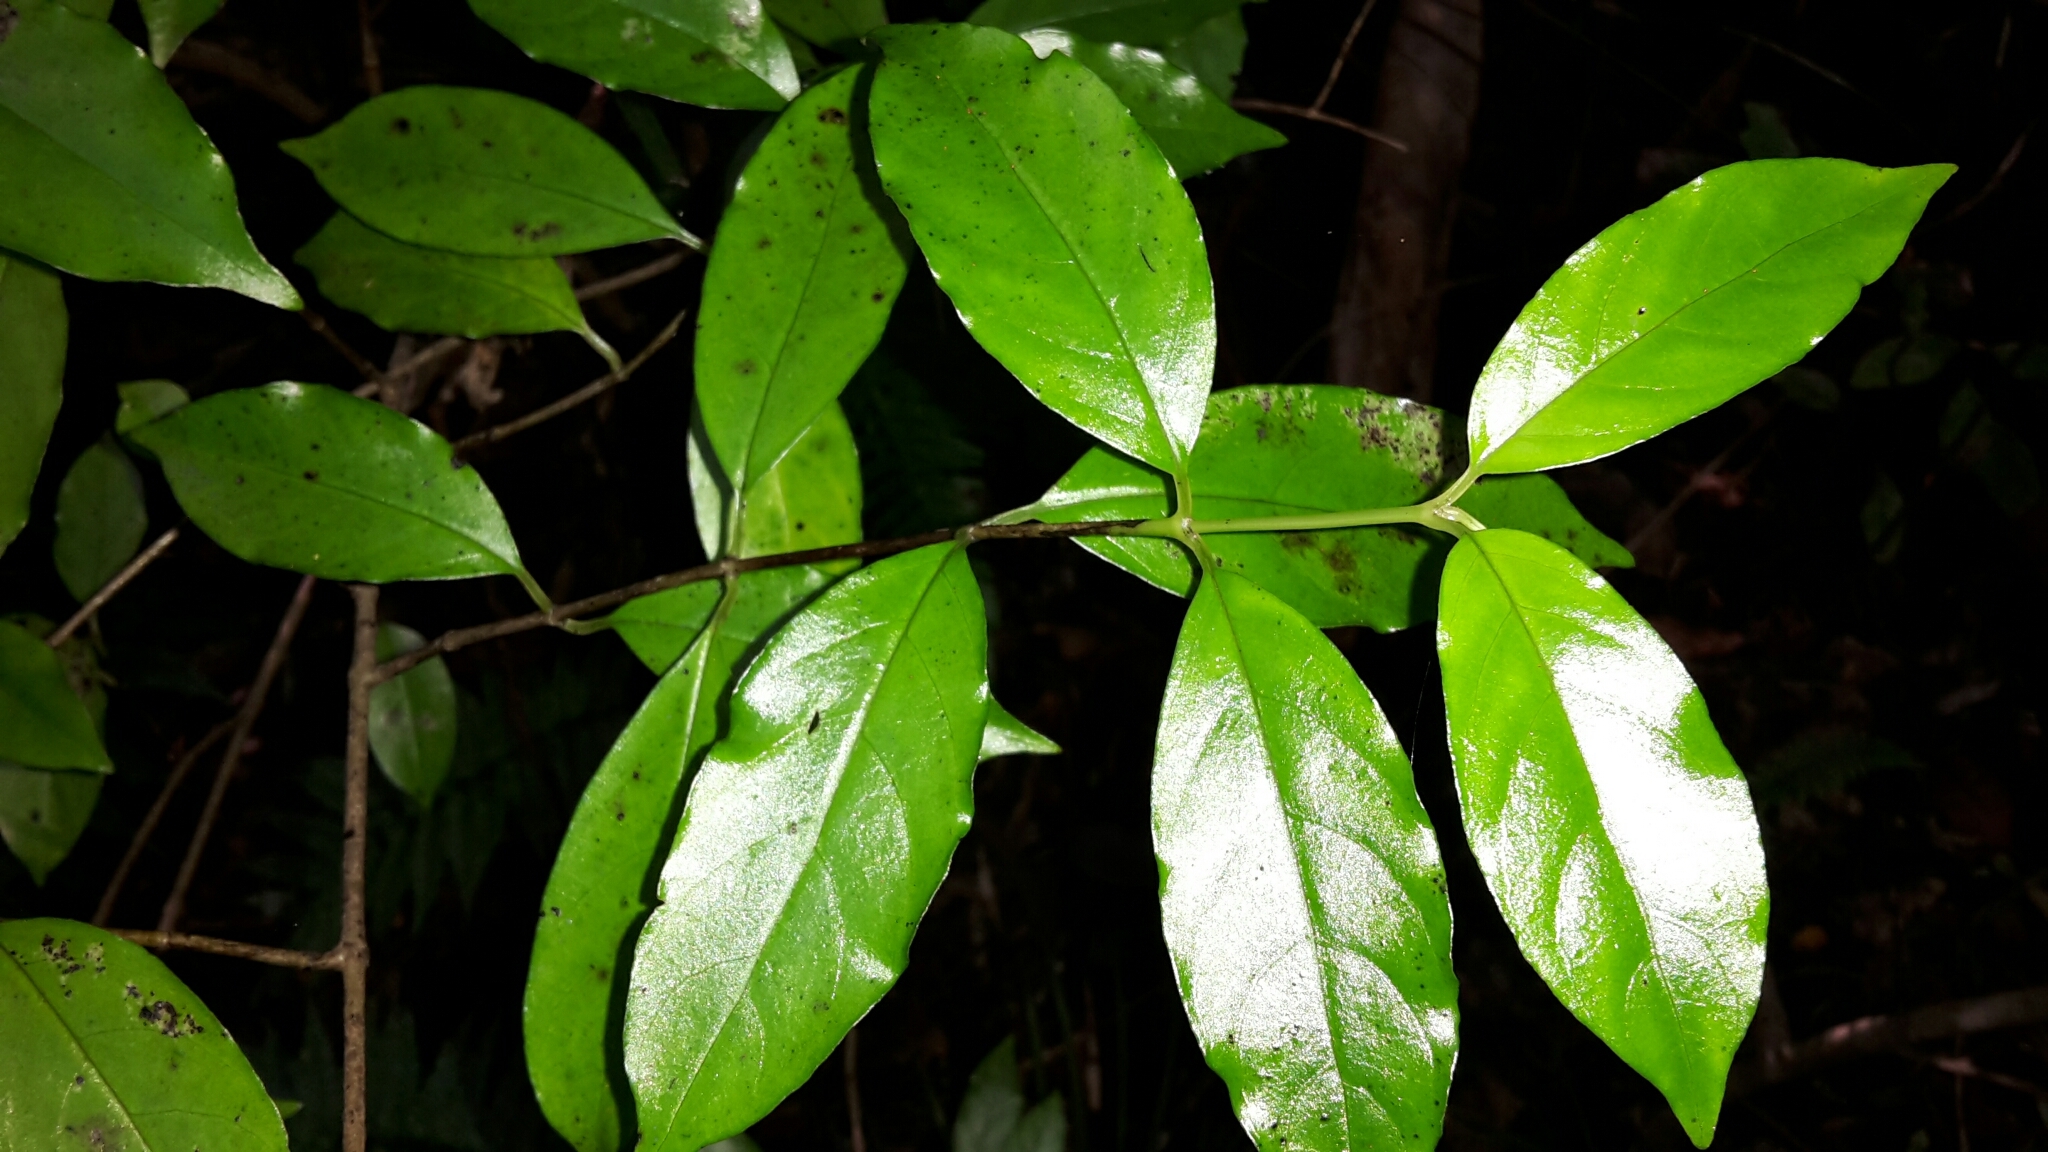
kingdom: Plantae
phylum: Tracheophyta
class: Magnoliopsida
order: Gentianales
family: Loganiaceae
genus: Geniostoma
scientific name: Geniostoma ligustrifolium
